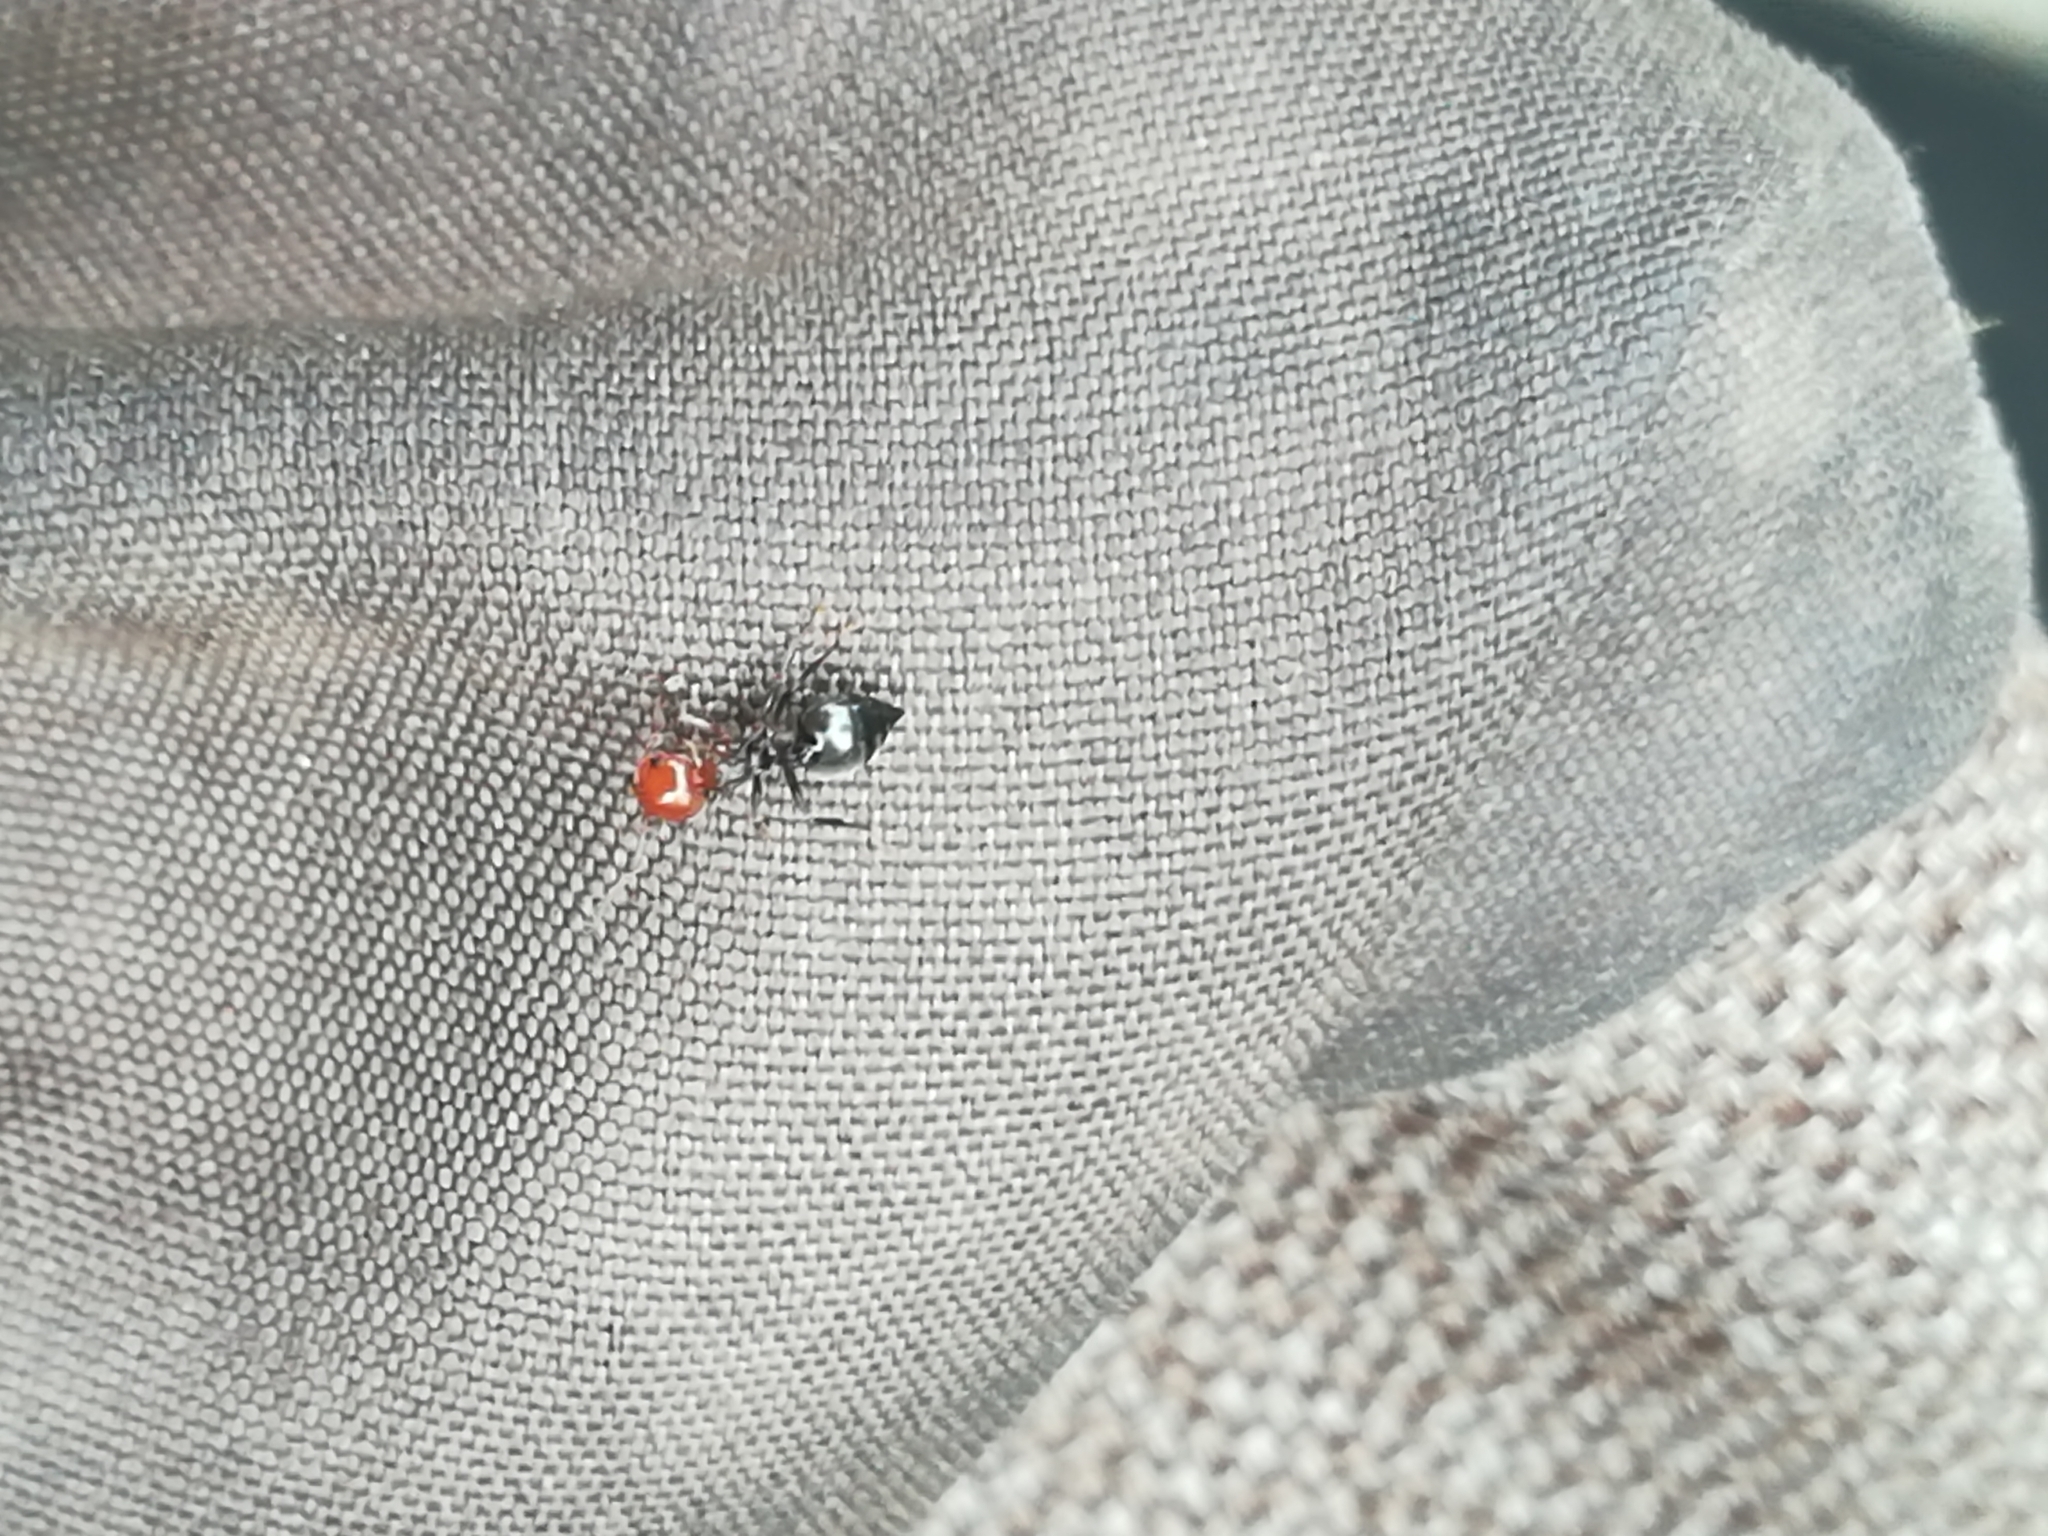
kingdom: Animalia
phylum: Arthropoda
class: Insecta
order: Hymenoptera
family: Formicidae
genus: Crematogaster
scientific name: Crematogaster scutellaris
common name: Fourmi du liège
